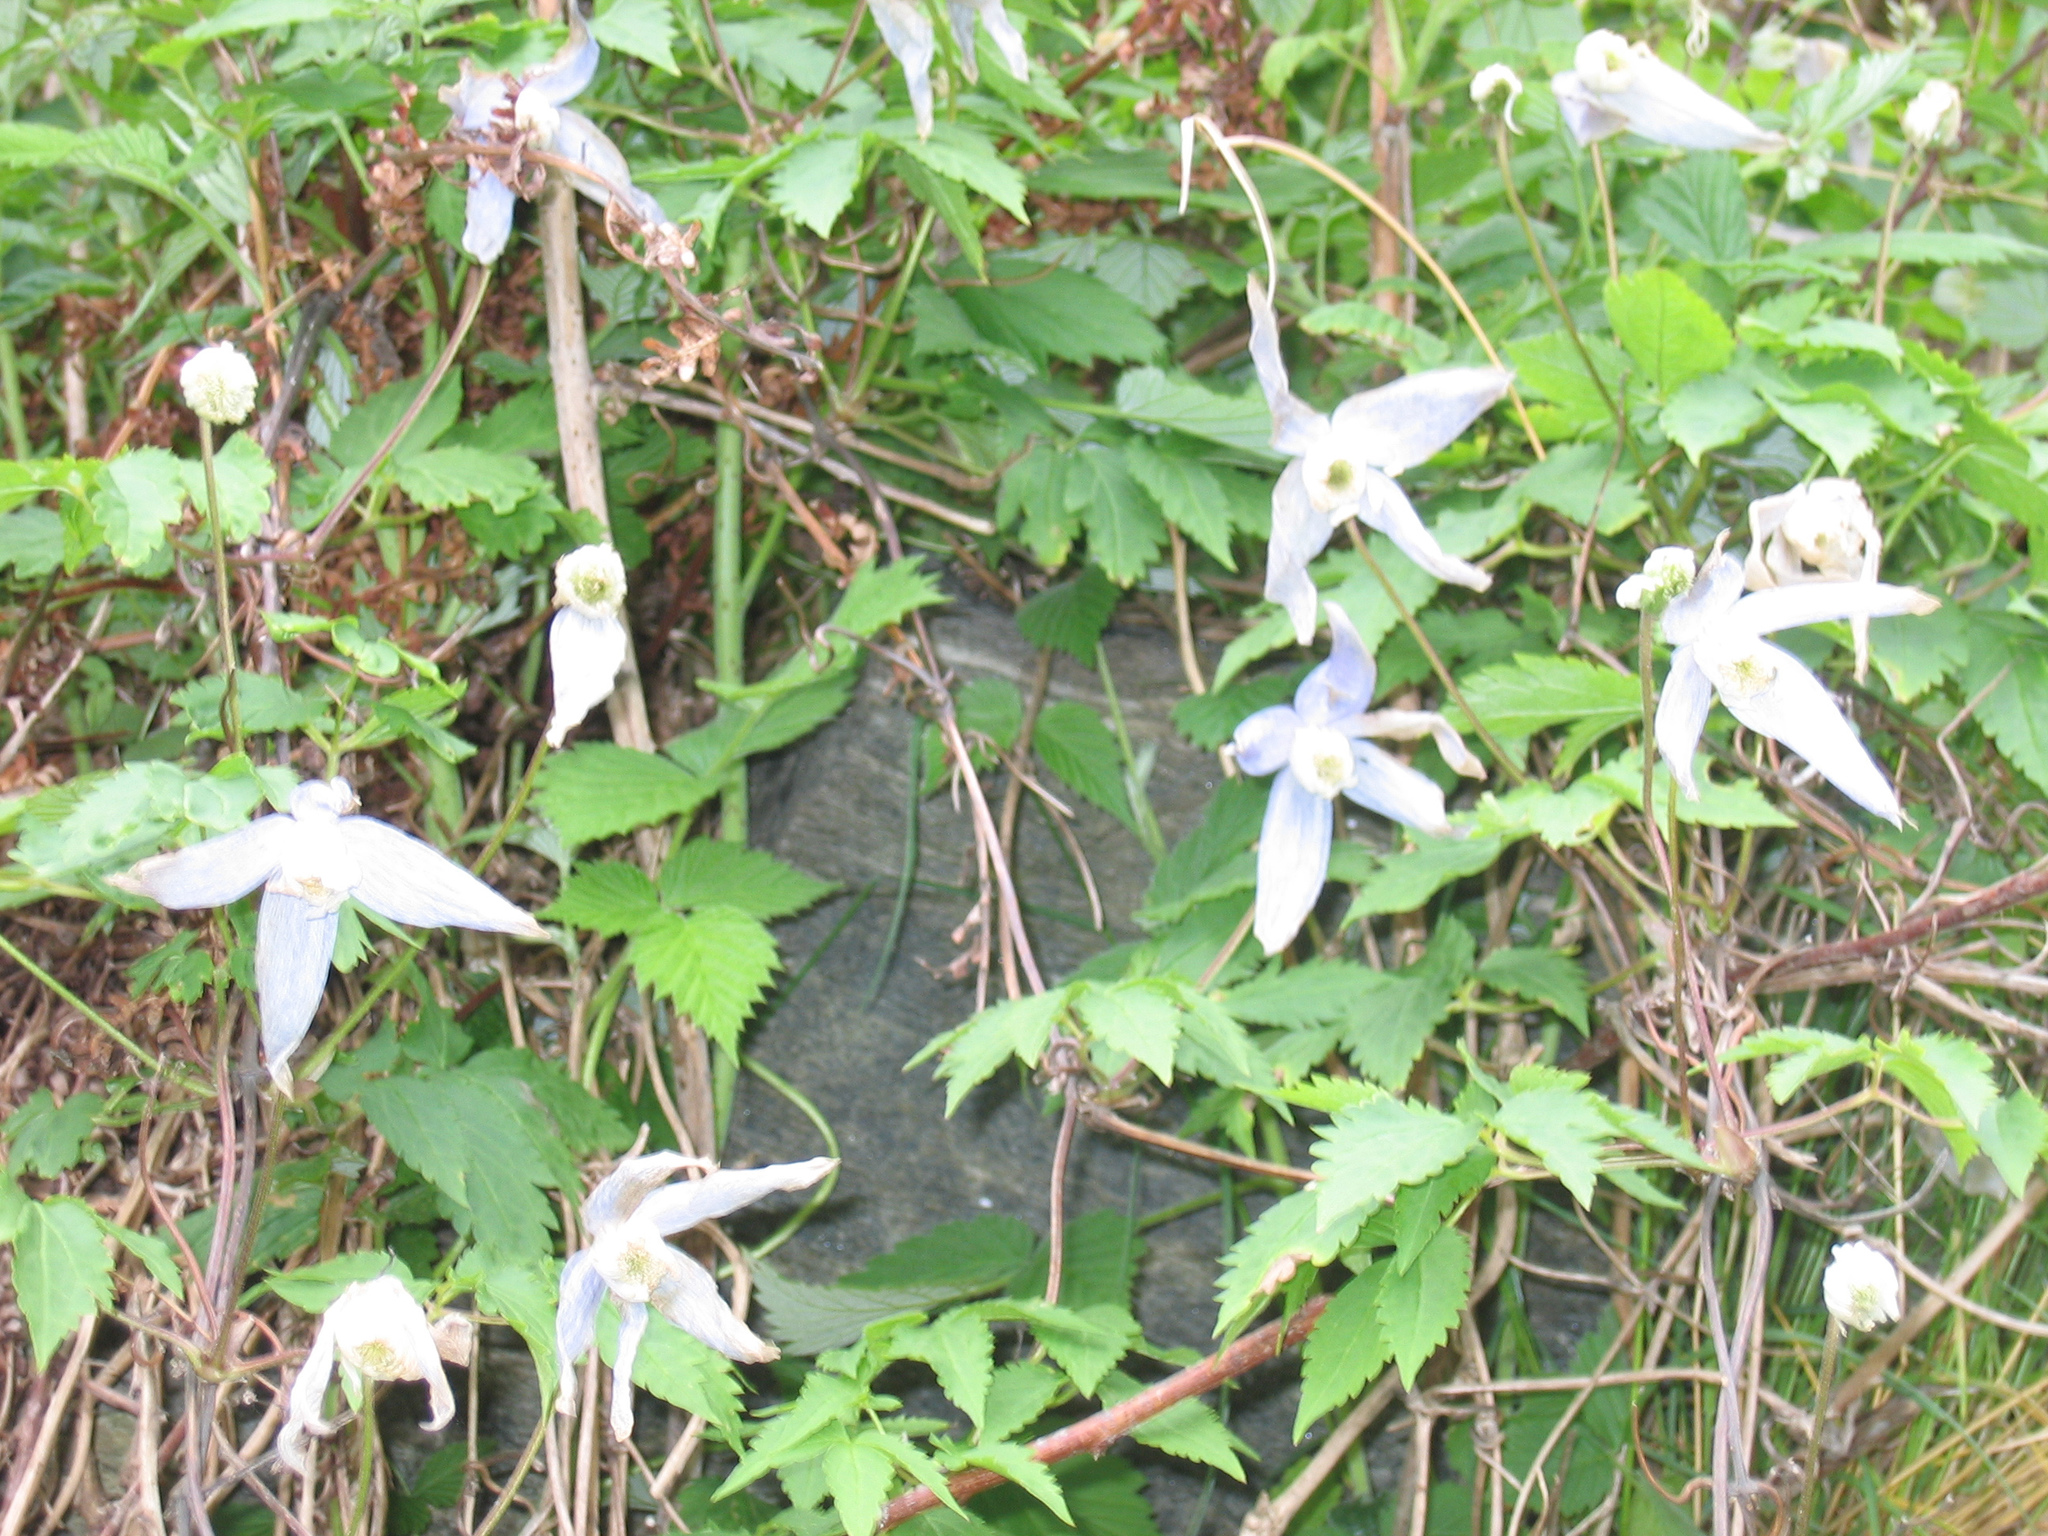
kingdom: Plantae
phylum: Tracheophyta
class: Magnoliopsida
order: Ranunculales
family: Ranunculaceae
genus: Clematis
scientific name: Clematis alpina
